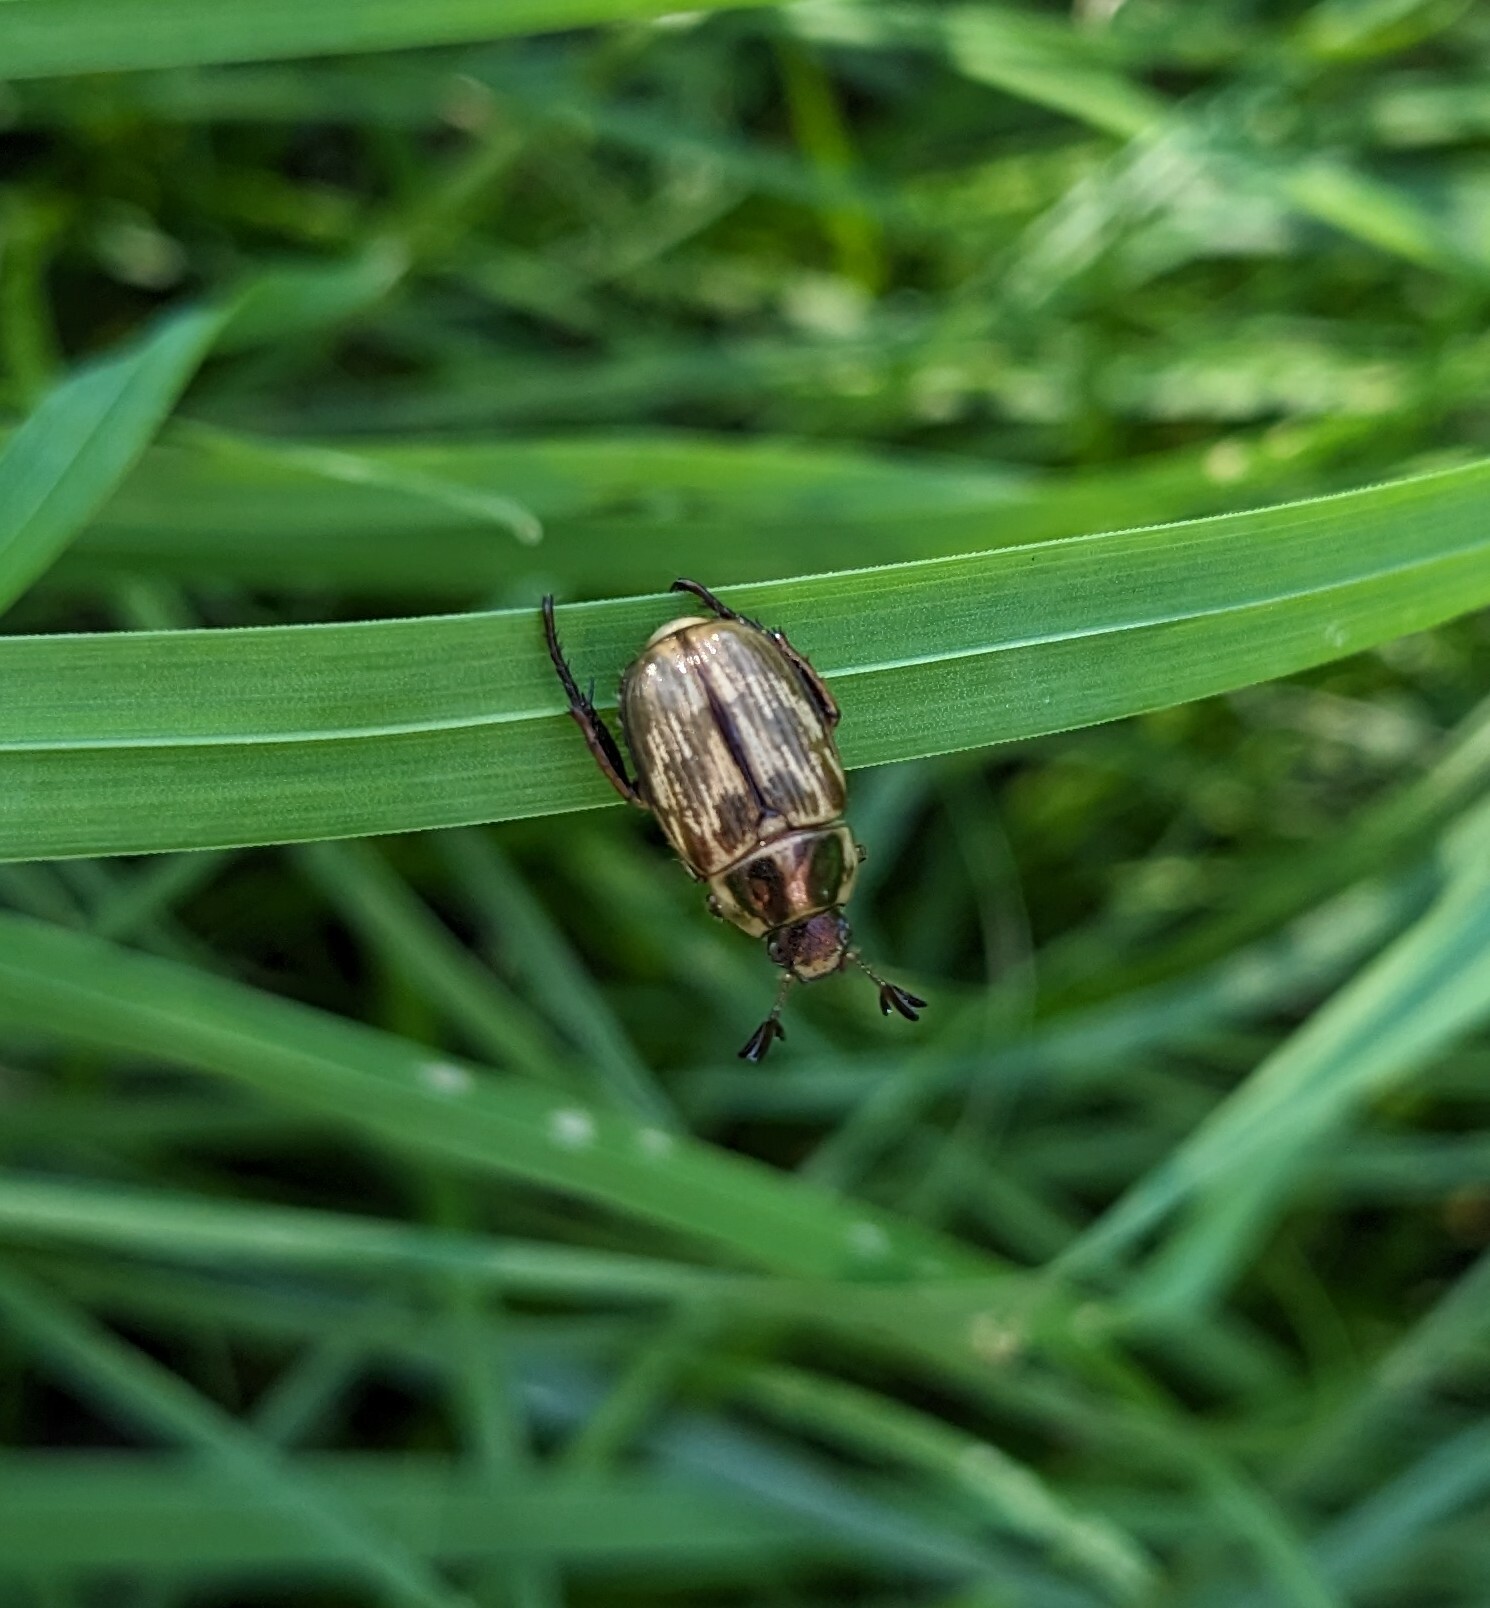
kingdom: Animalia
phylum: Arthropoda
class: Insecta
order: Coleoptera
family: Scarabaeidae
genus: Exomala
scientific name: Exomala orientalis
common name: Oriental beetle
